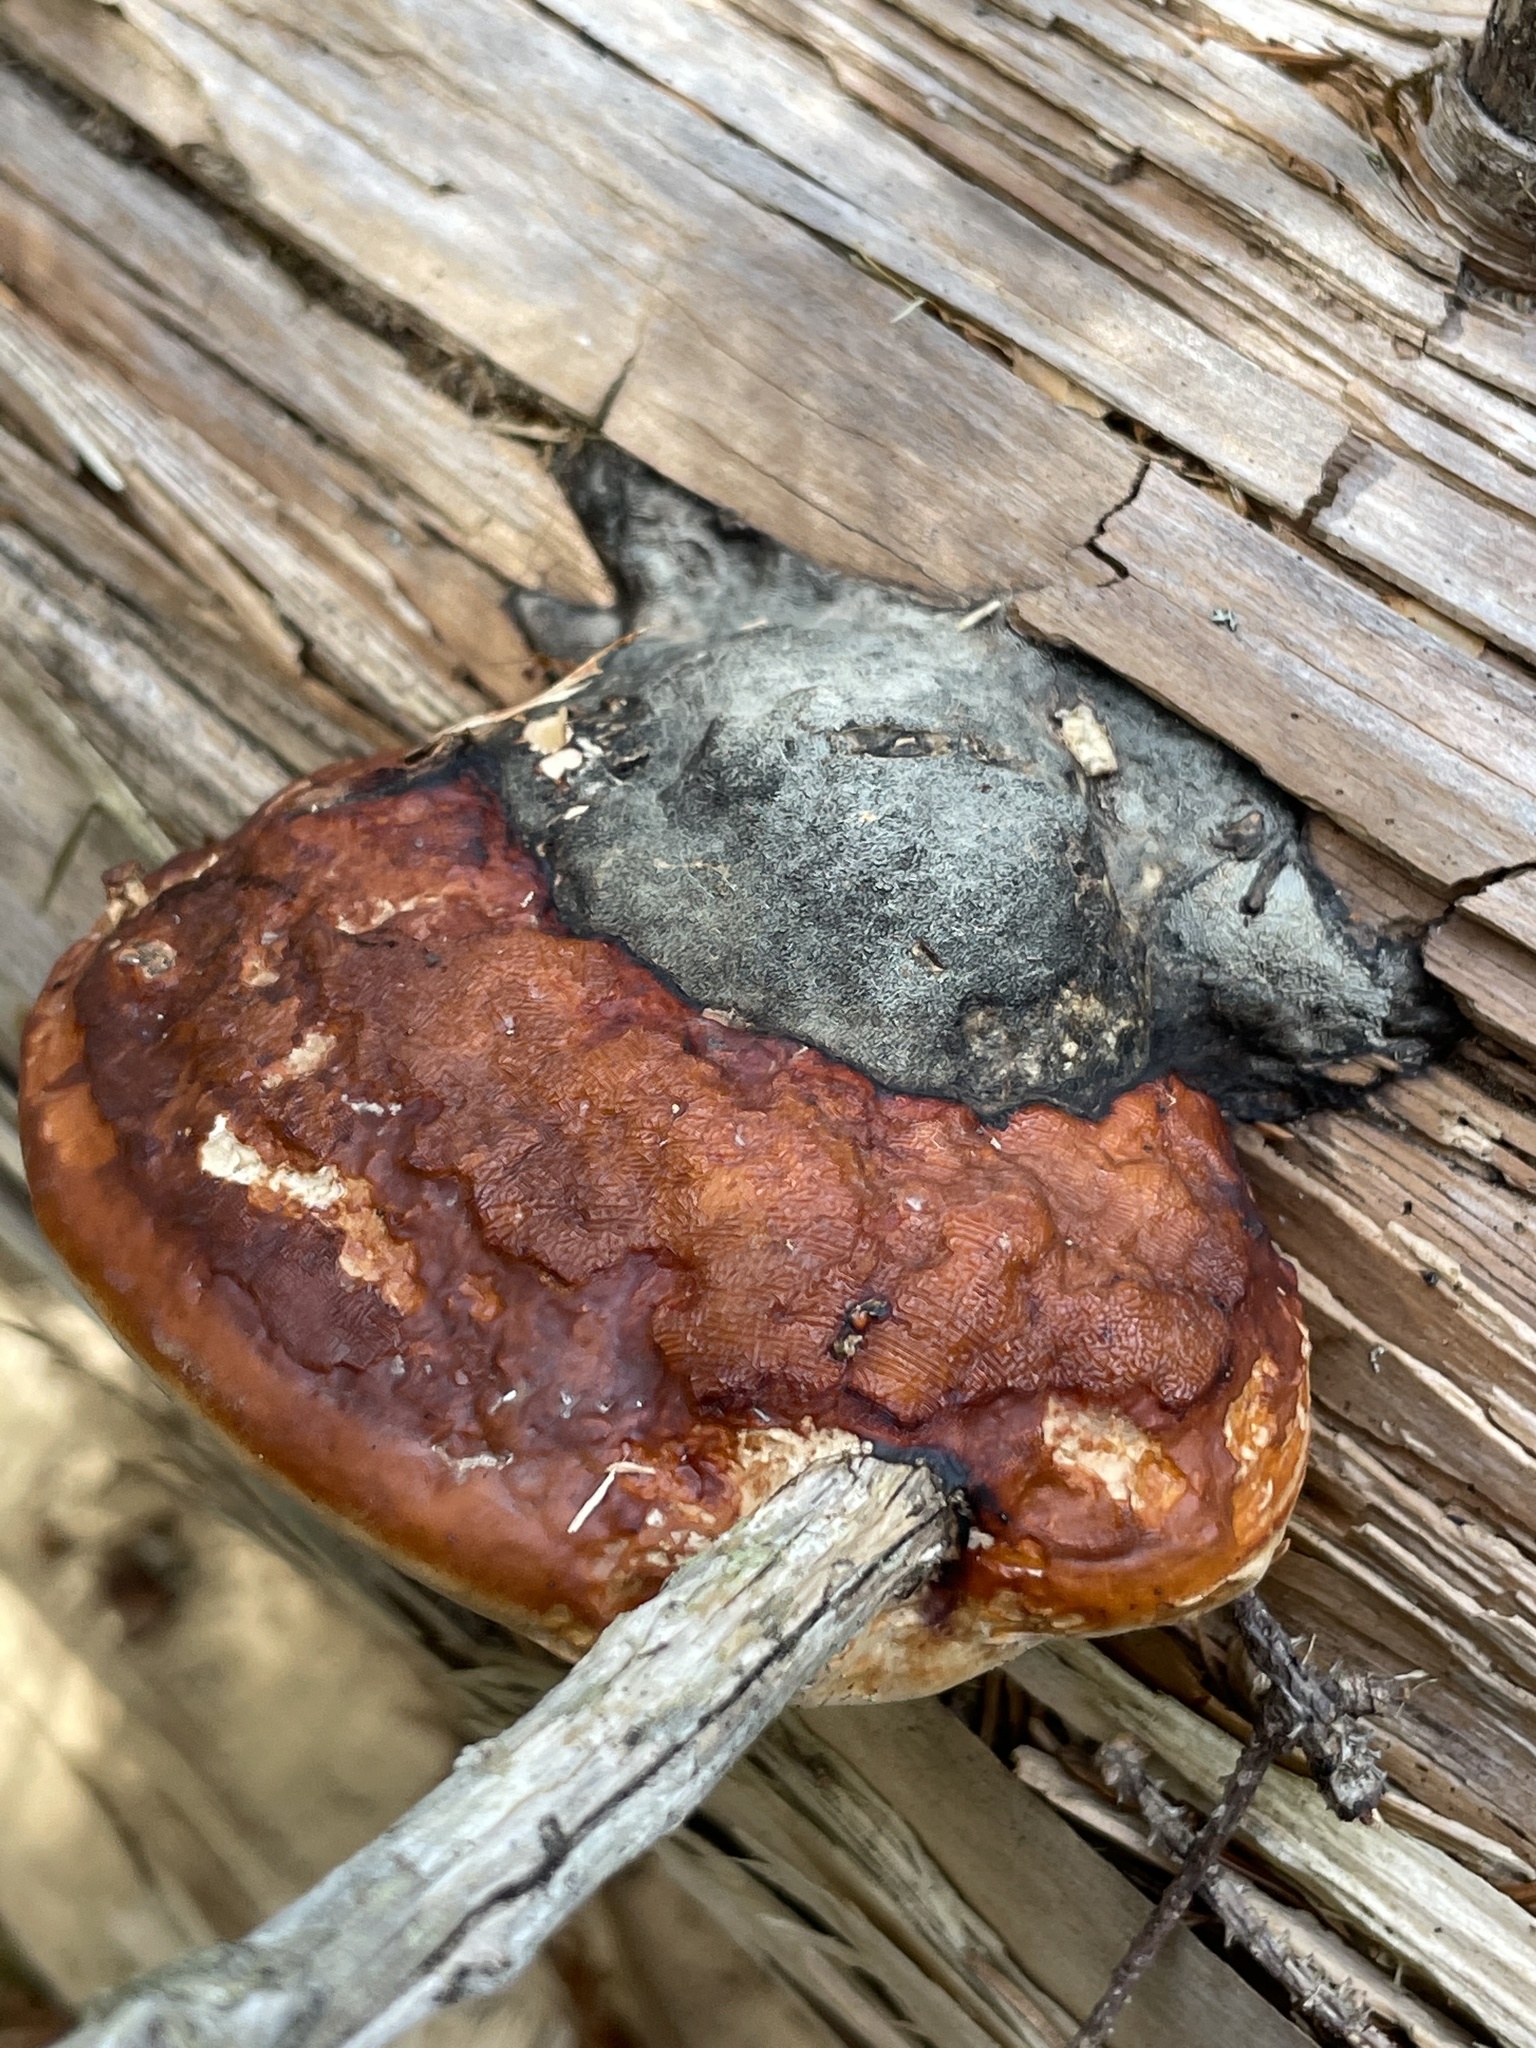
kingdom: Fungi
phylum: Basidiomycota
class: Agaricomycetes
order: Polyporales
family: Fomitopsidaceae
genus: Fomitopsis
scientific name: Fomitopsis mounceae
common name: Northern red belt
